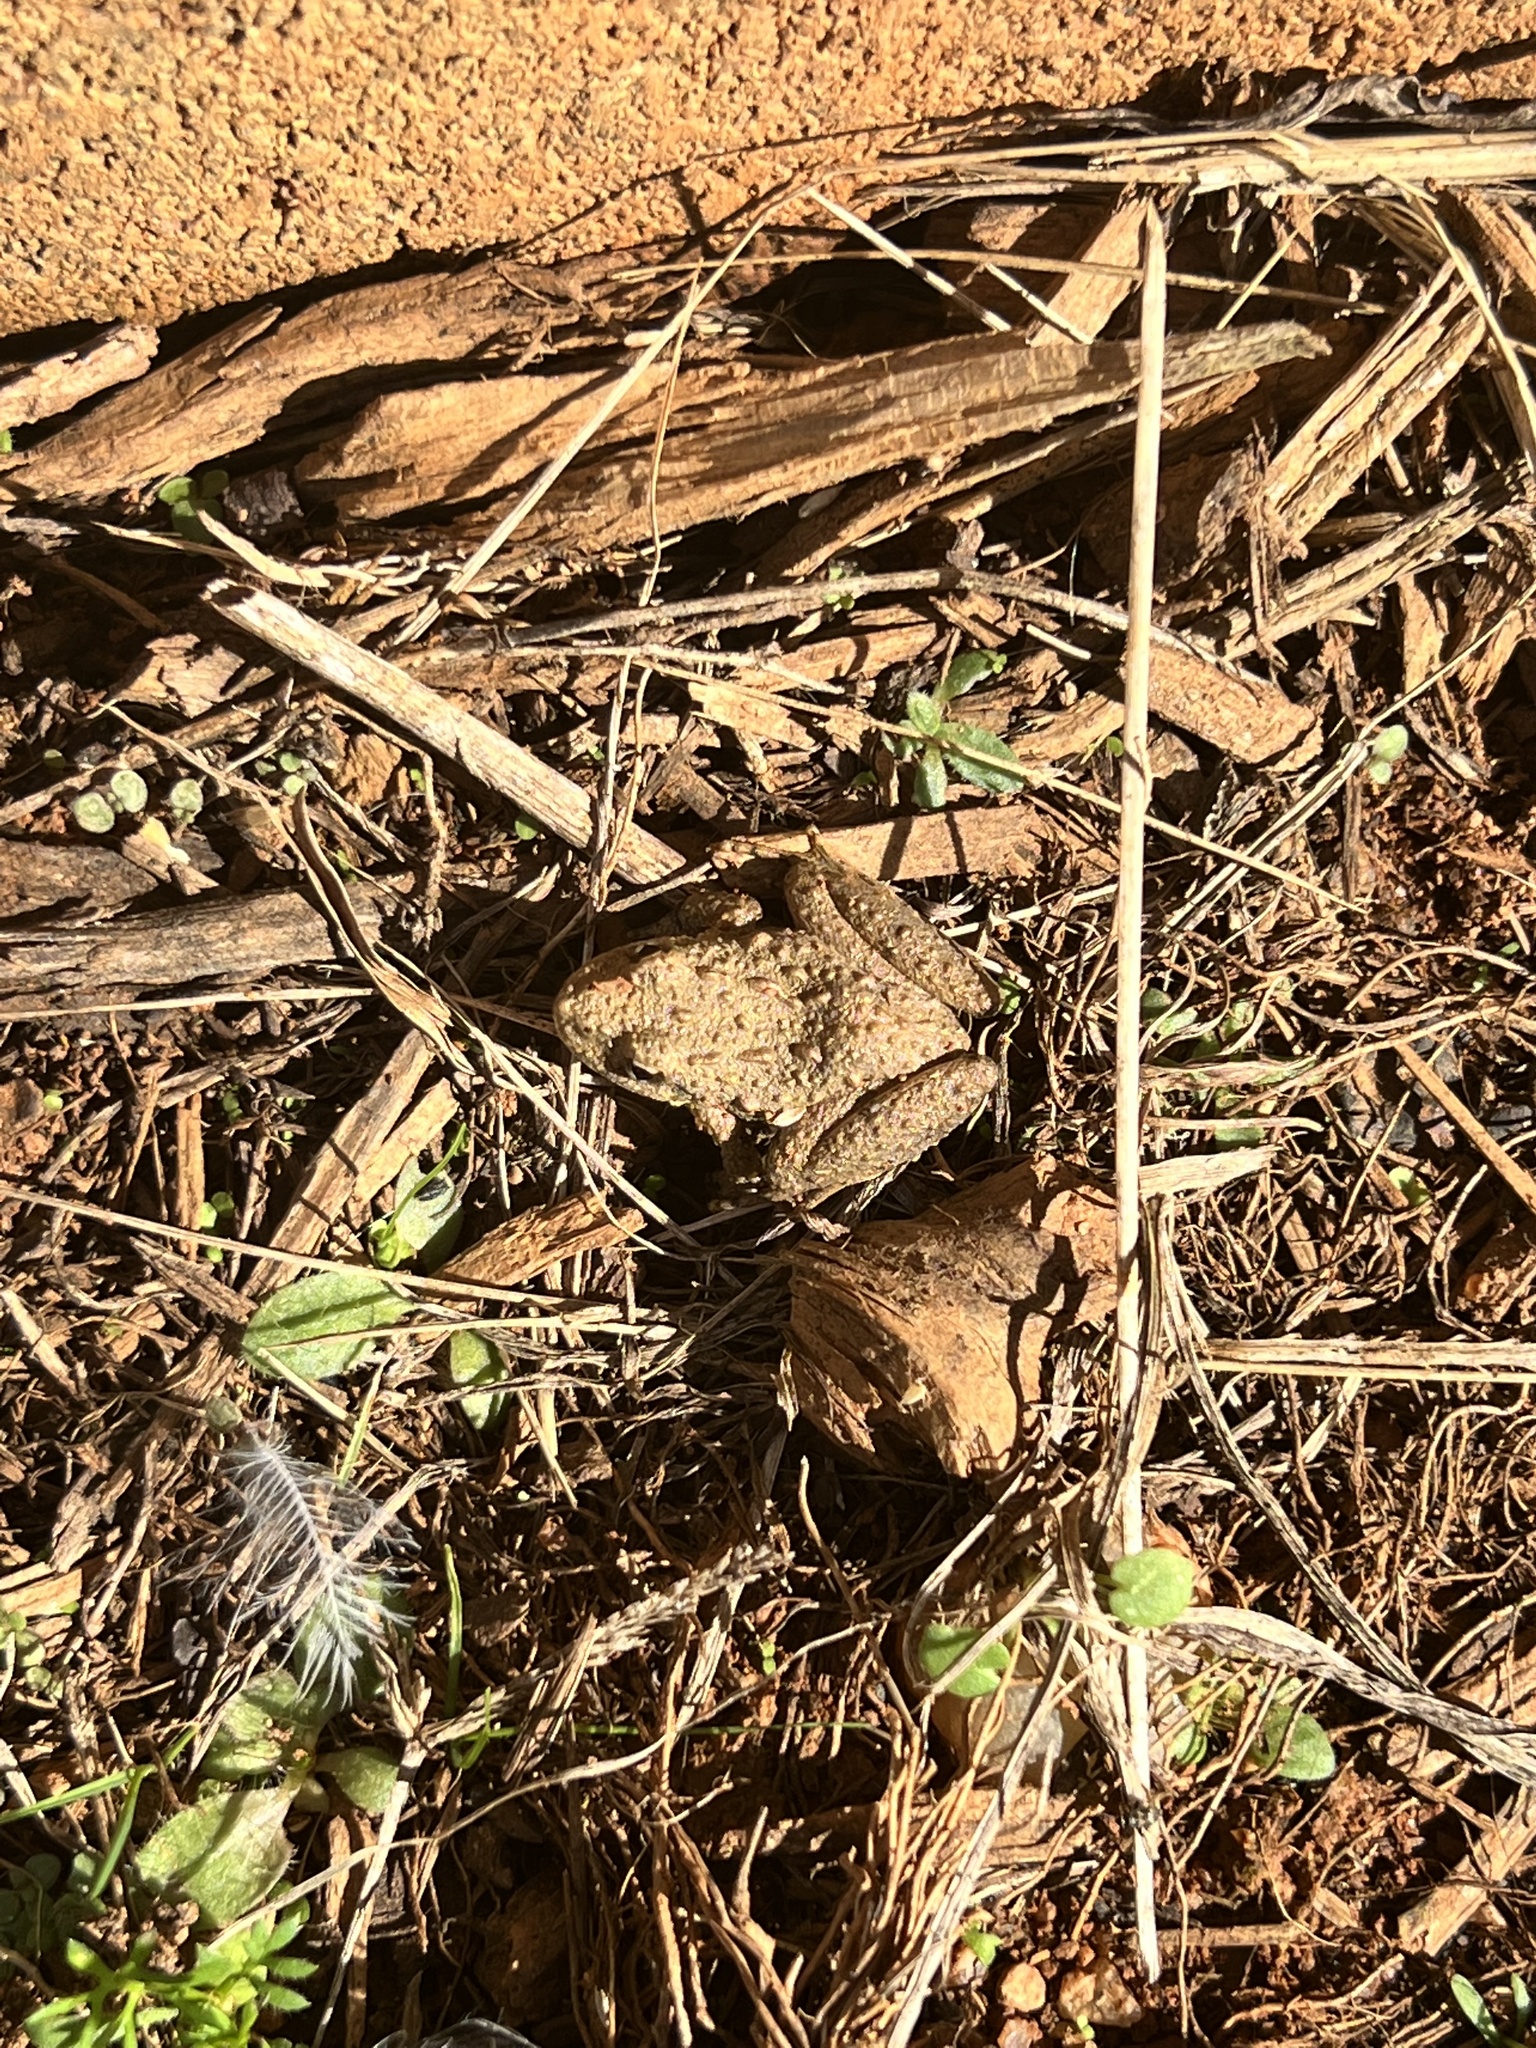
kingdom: Animalia
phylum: Chordata
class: Amphibia
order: Anura
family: Hylidae
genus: Acris
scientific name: Acris crepitans
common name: Northern cricket frog
